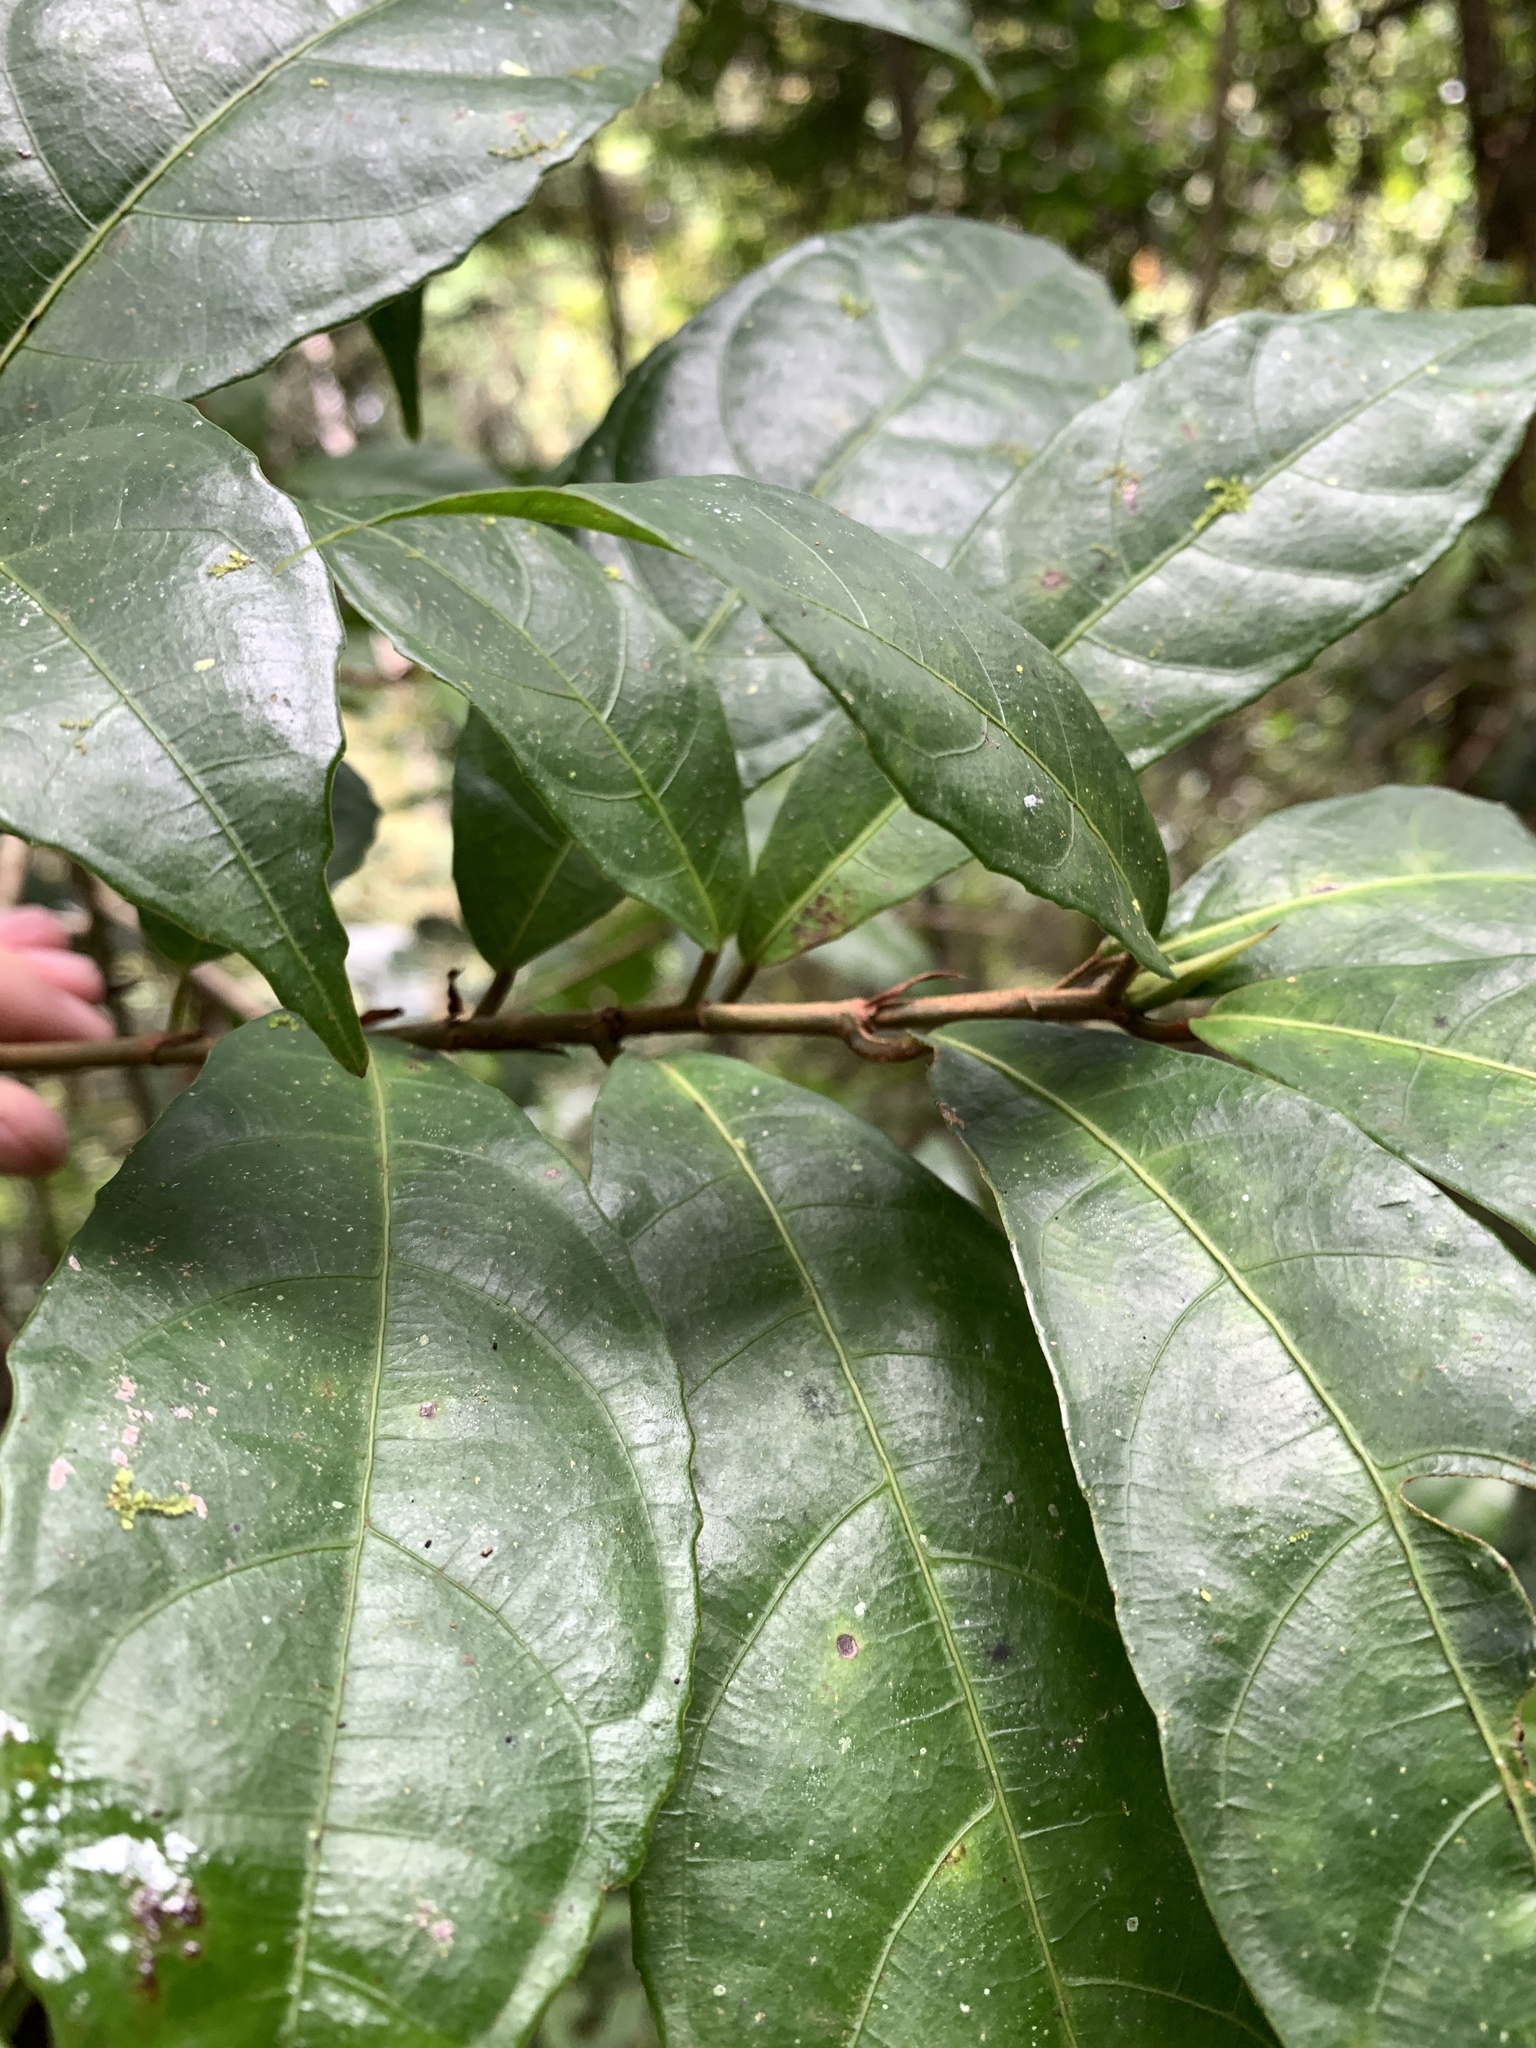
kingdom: Plantae
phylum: Tracheophyta
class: Magnoliopsida
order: Rosales
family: Moraceae
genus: Ficus
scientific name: Ficus sinuata
